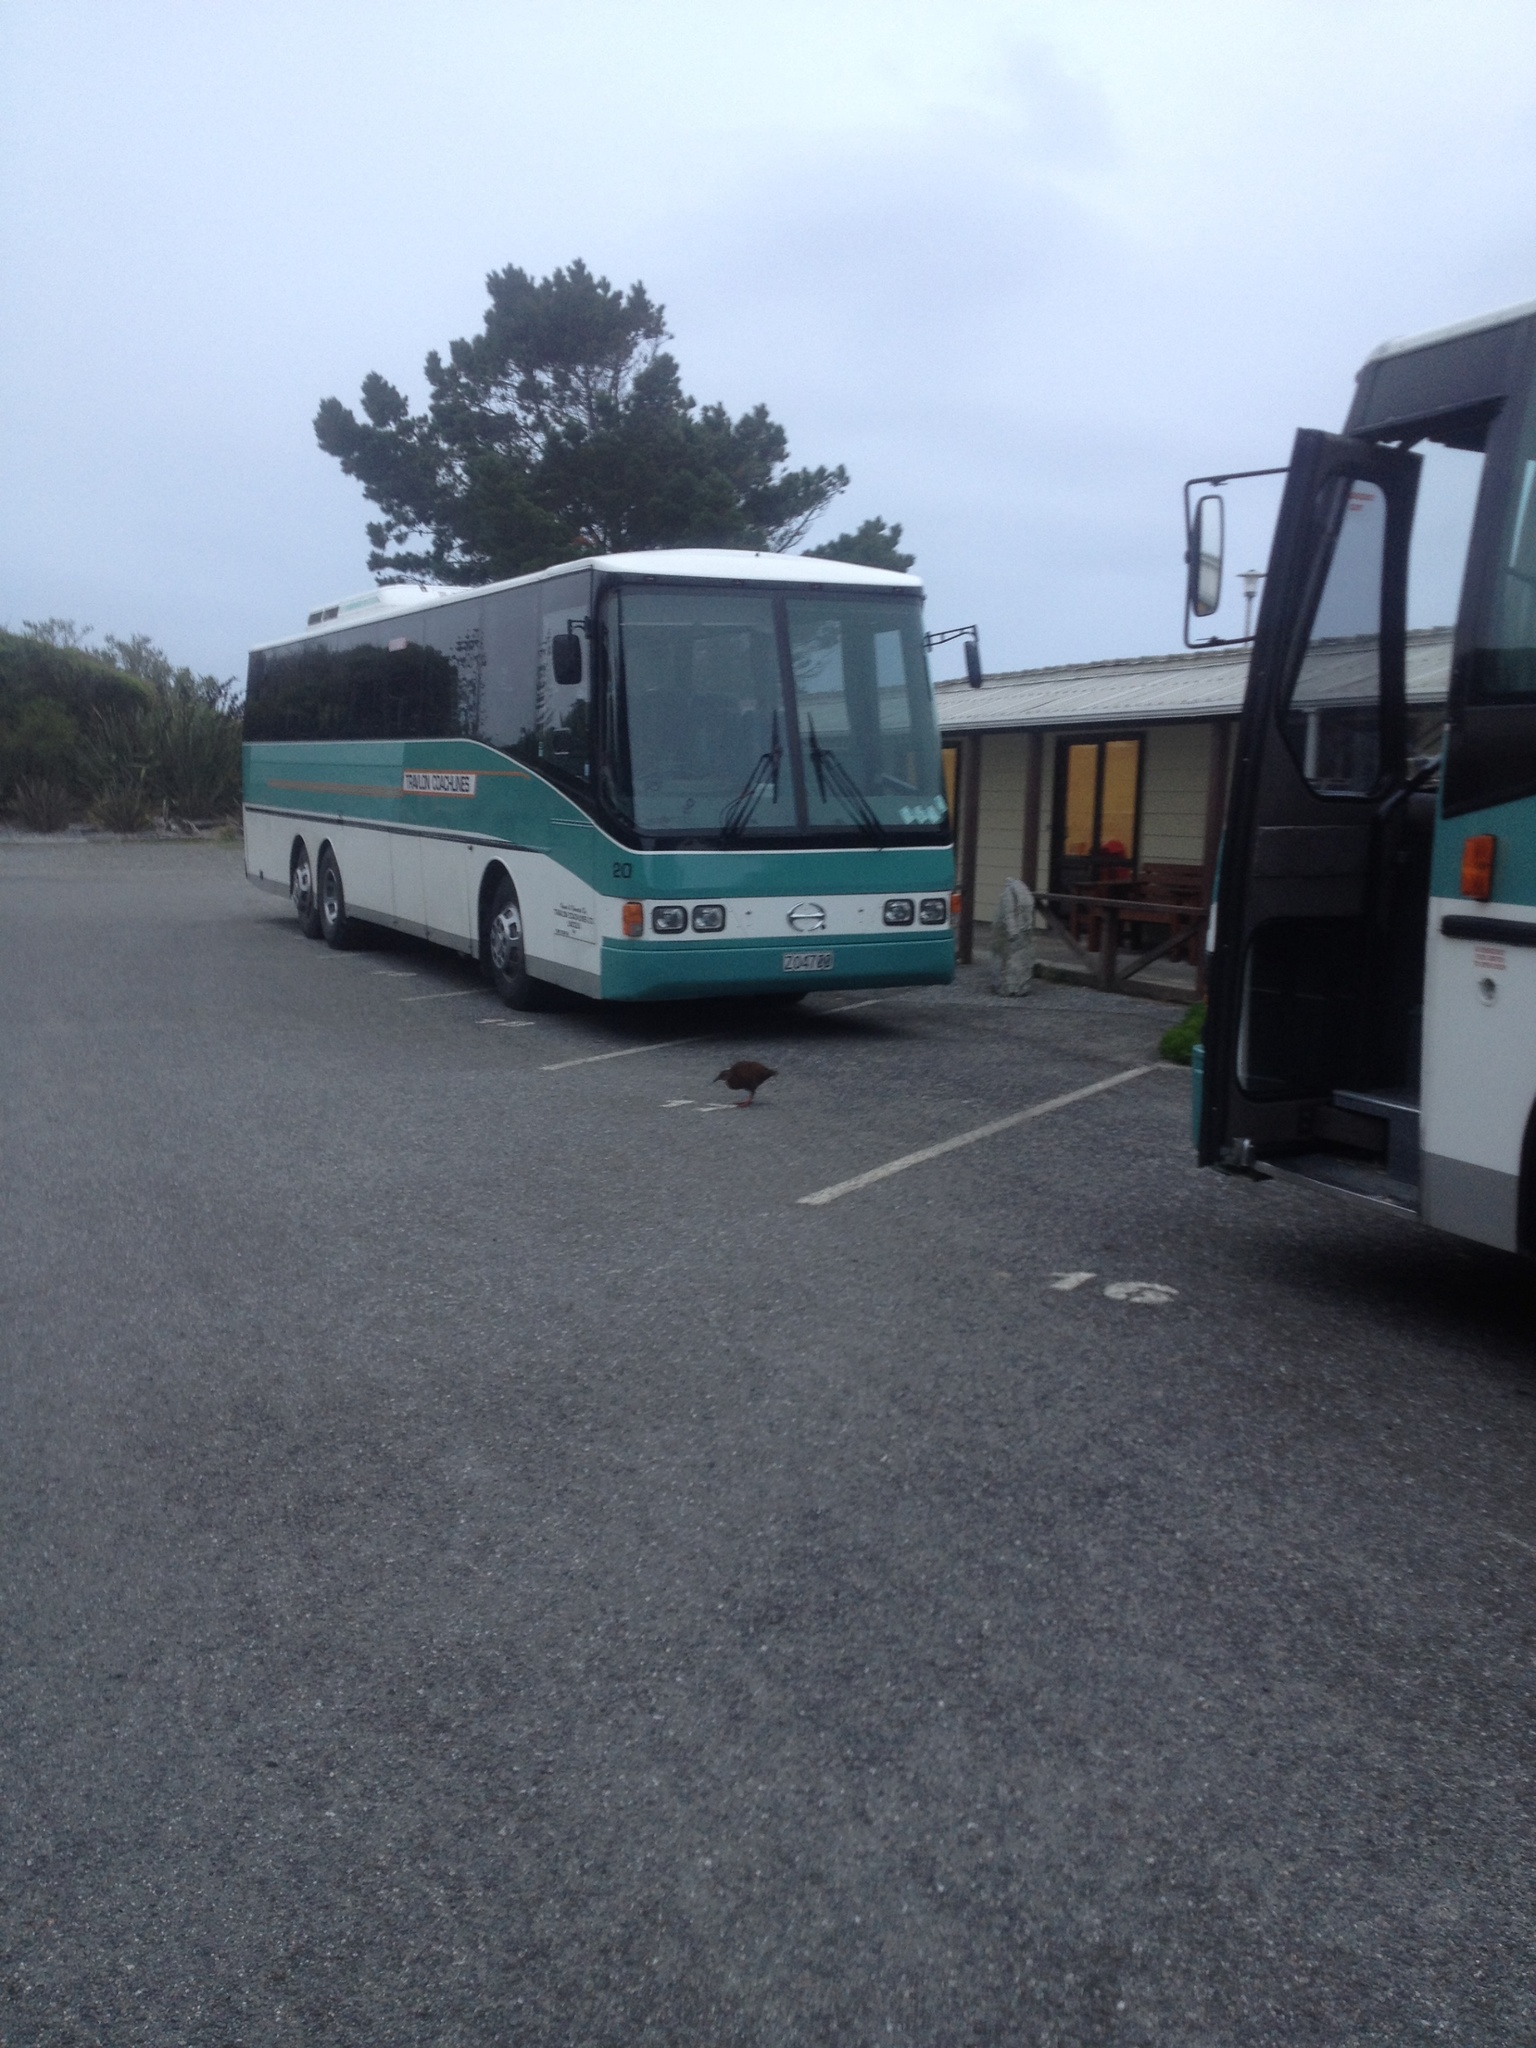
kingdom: Animalia
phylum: Chordata
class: Aves
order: Gruiformes
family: Rallidae
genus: Gallirallus
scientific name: Gallirallus australis
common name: Weka
